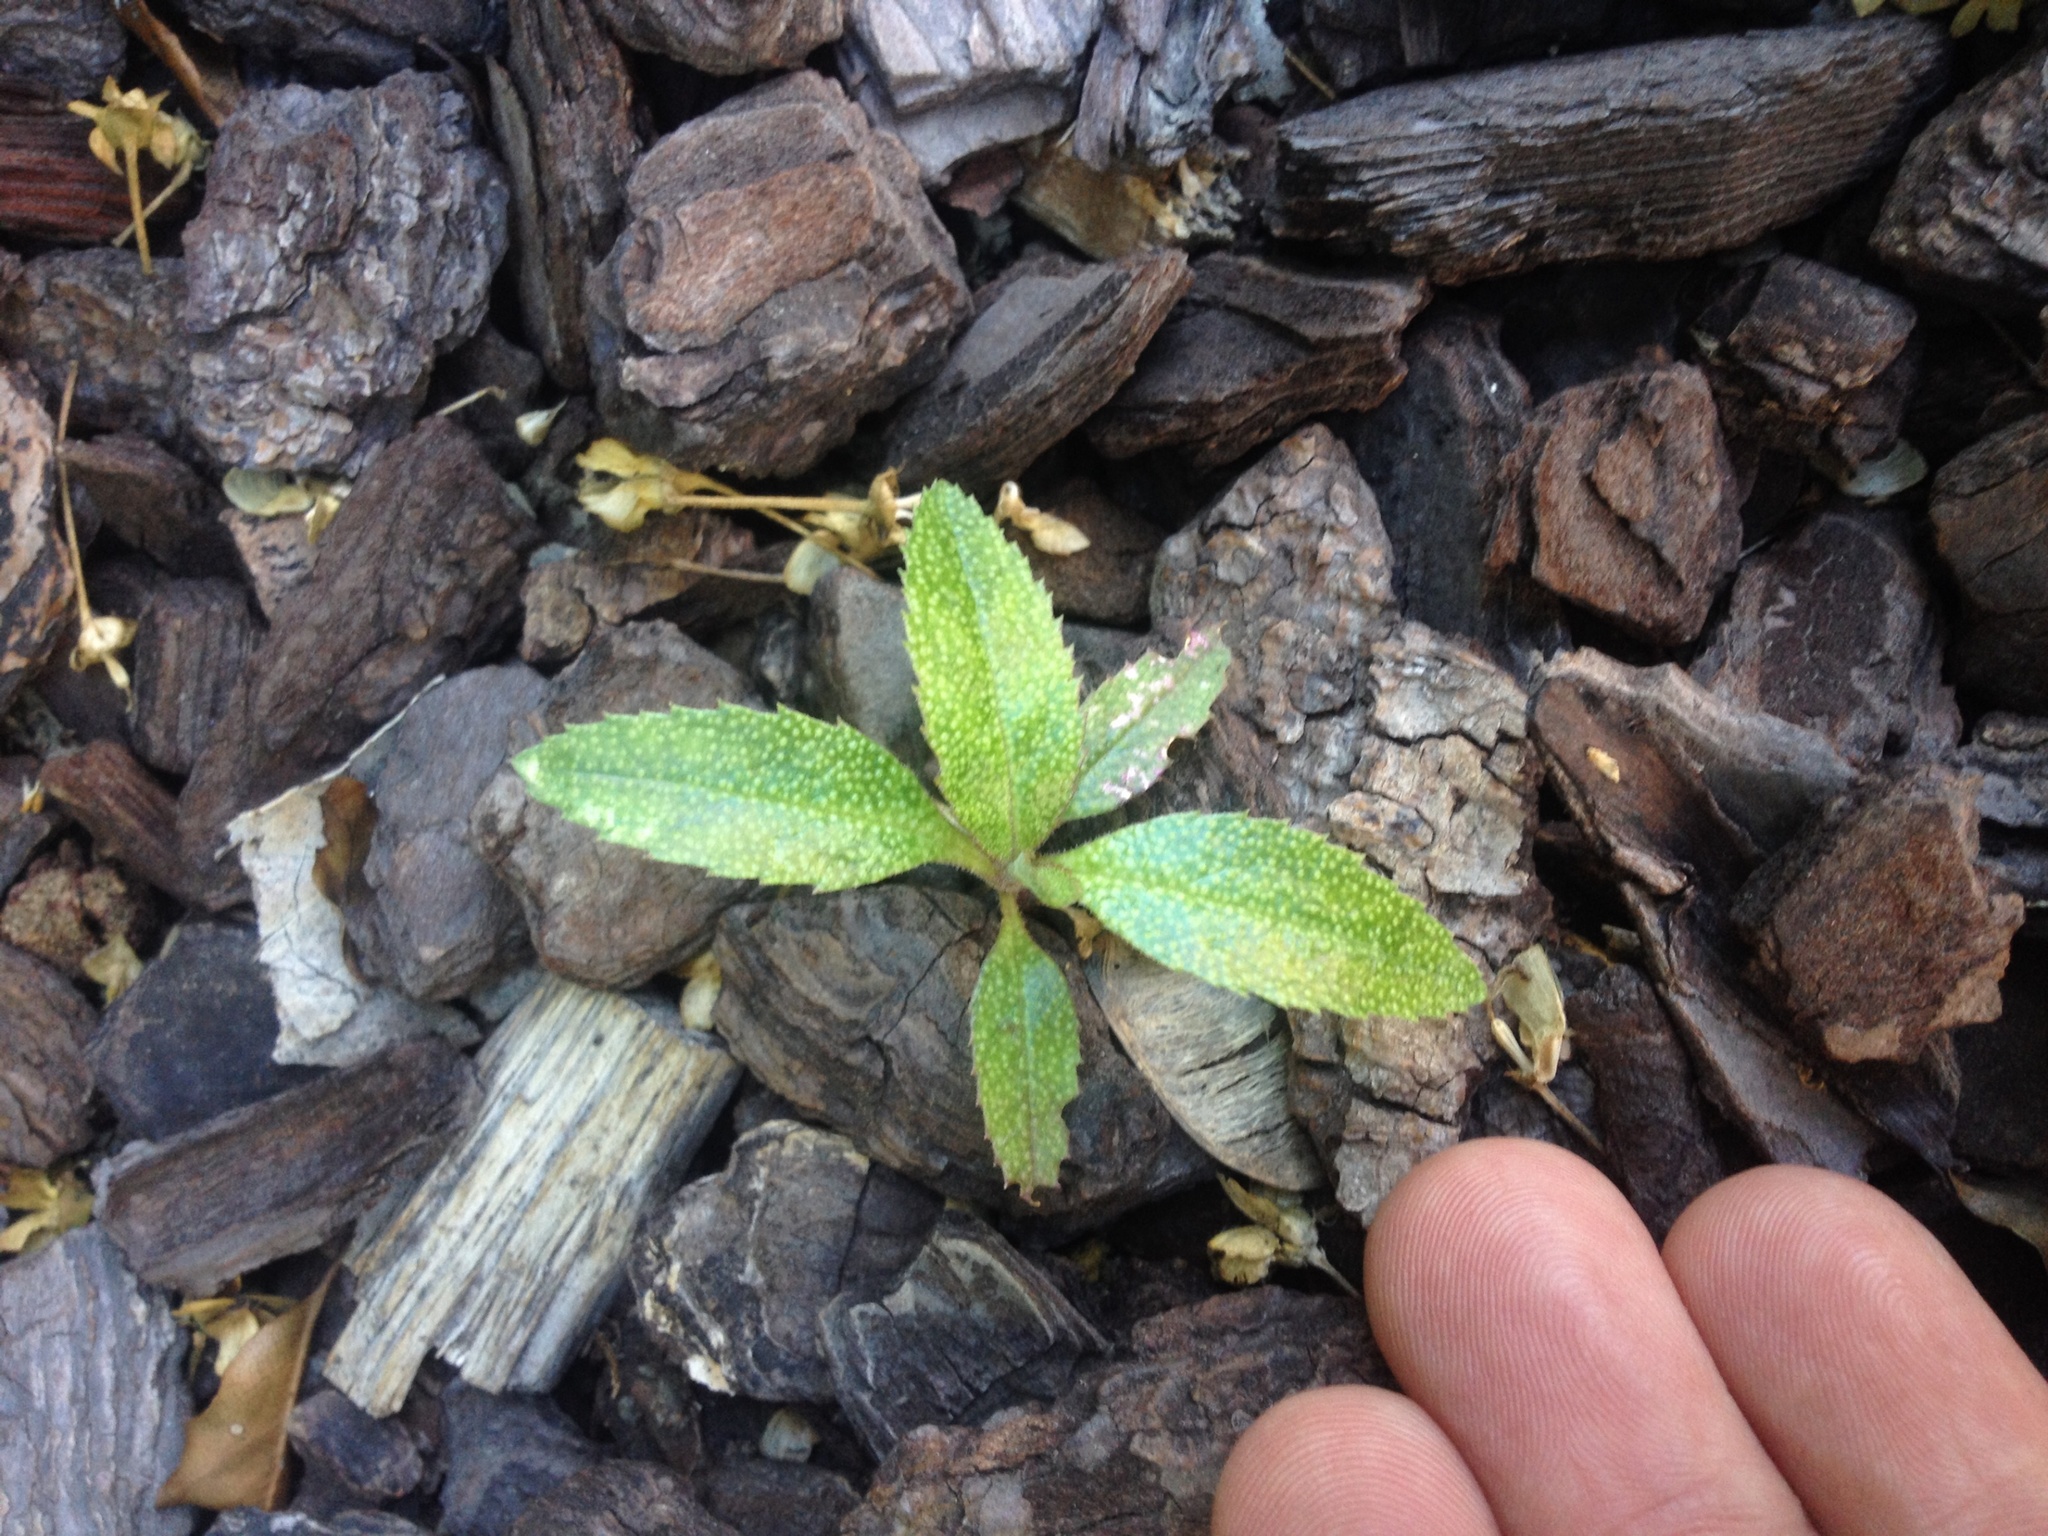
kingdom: Plantae
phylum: Tracheophyta
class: Magnoliopsida
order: Lamiales
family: Scrophulariaceae
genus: Myoporum
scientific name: Myoporum laetum
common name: Ngaio tree
